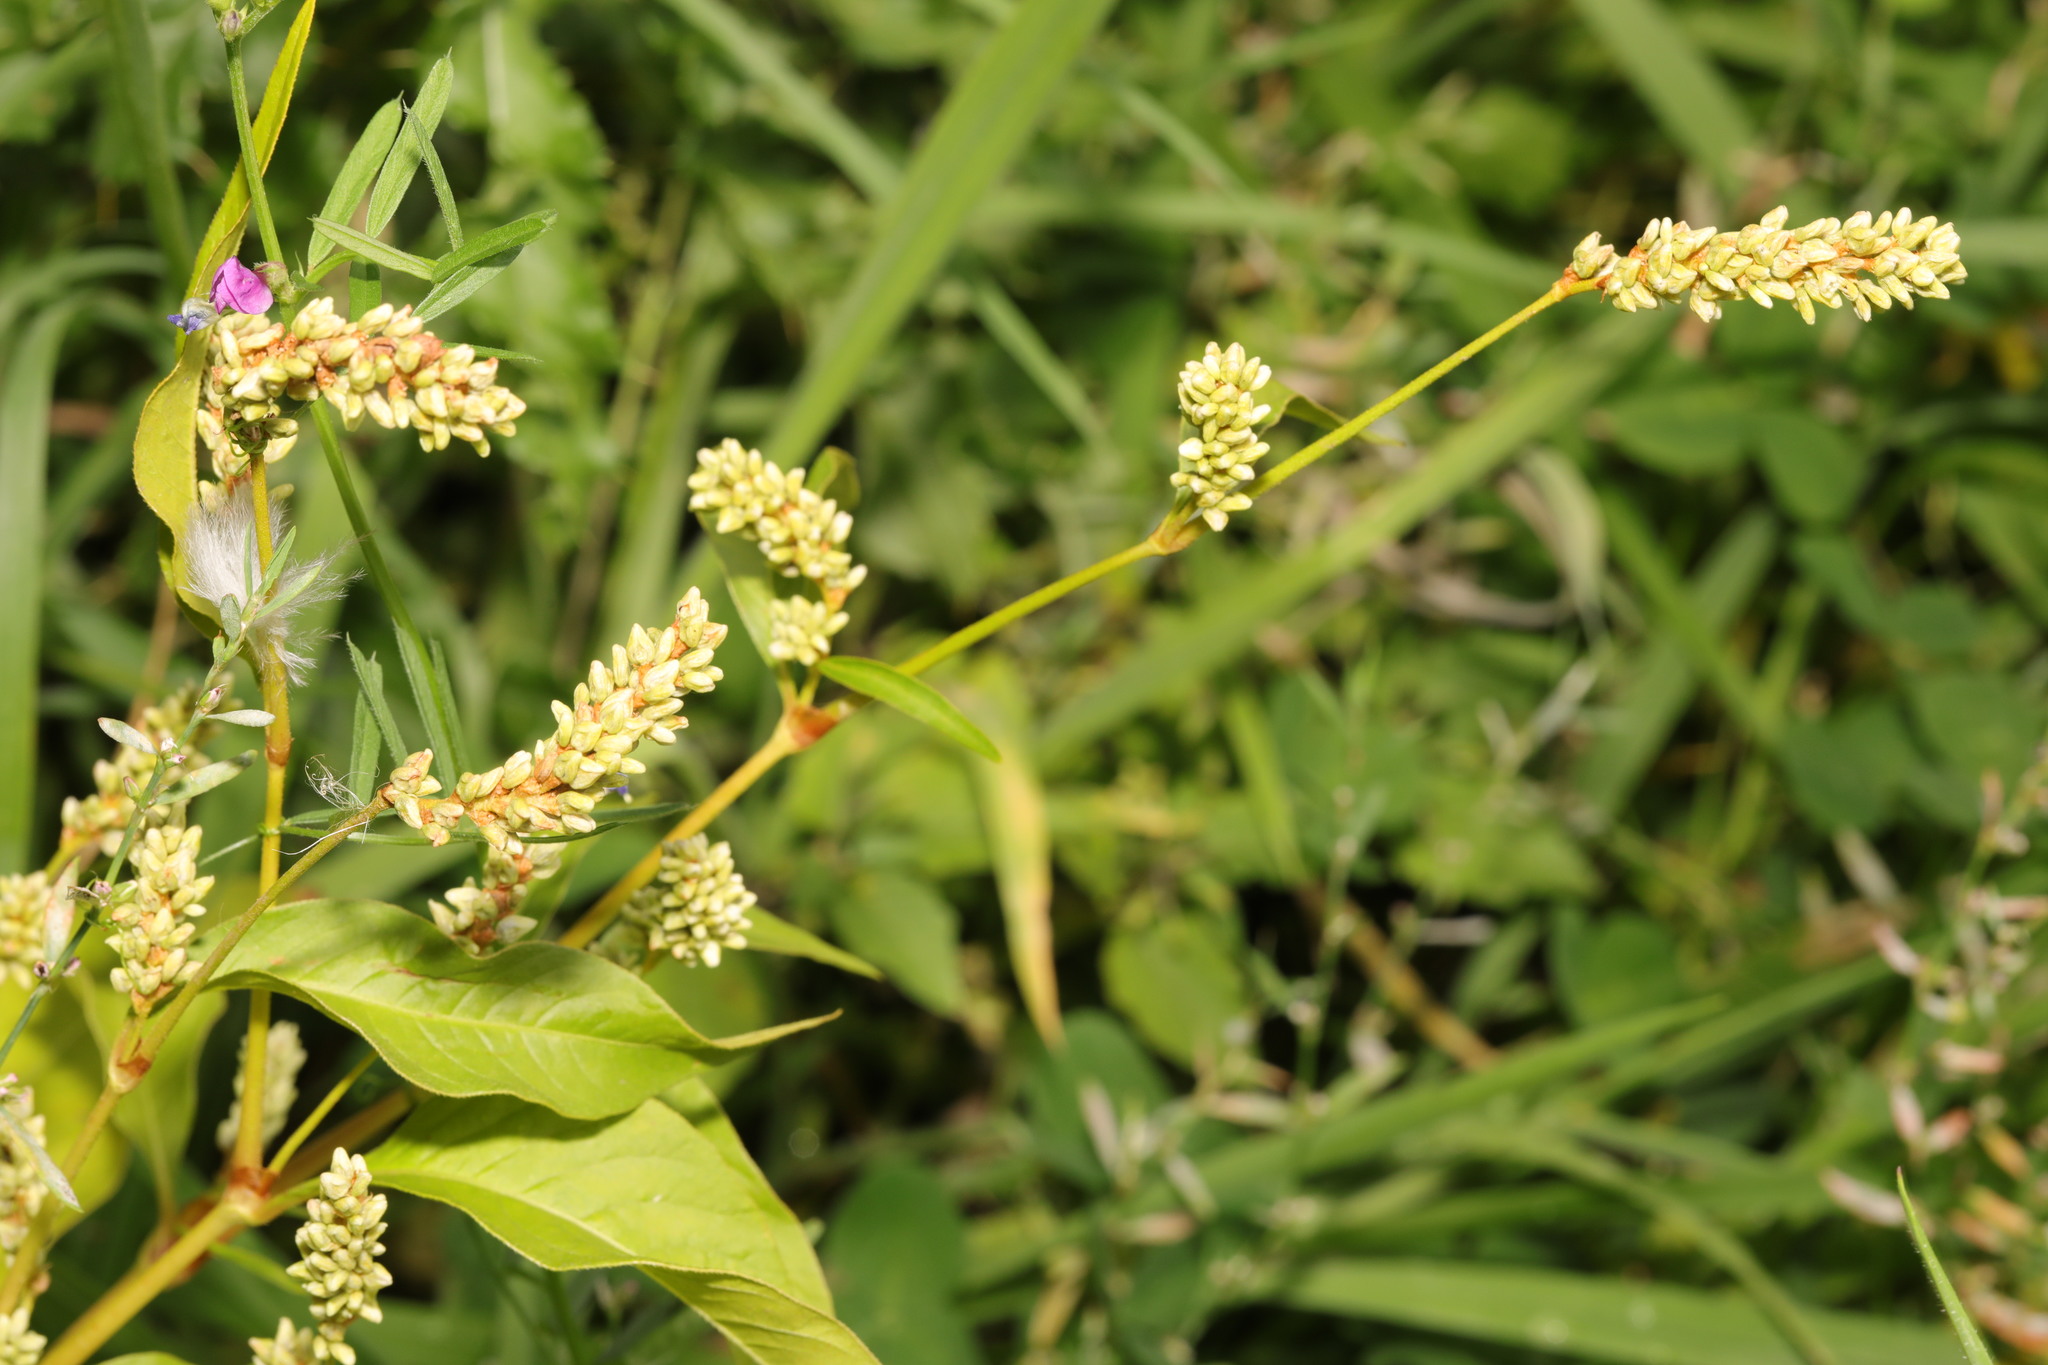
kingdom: Plantae
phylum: Tracheophyta
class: Magnoliopsida
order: Caryophyllales
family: Polygonaceae
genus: Persicaria
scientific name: Persicaria lapathifolia
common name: Curlytop knotweed
